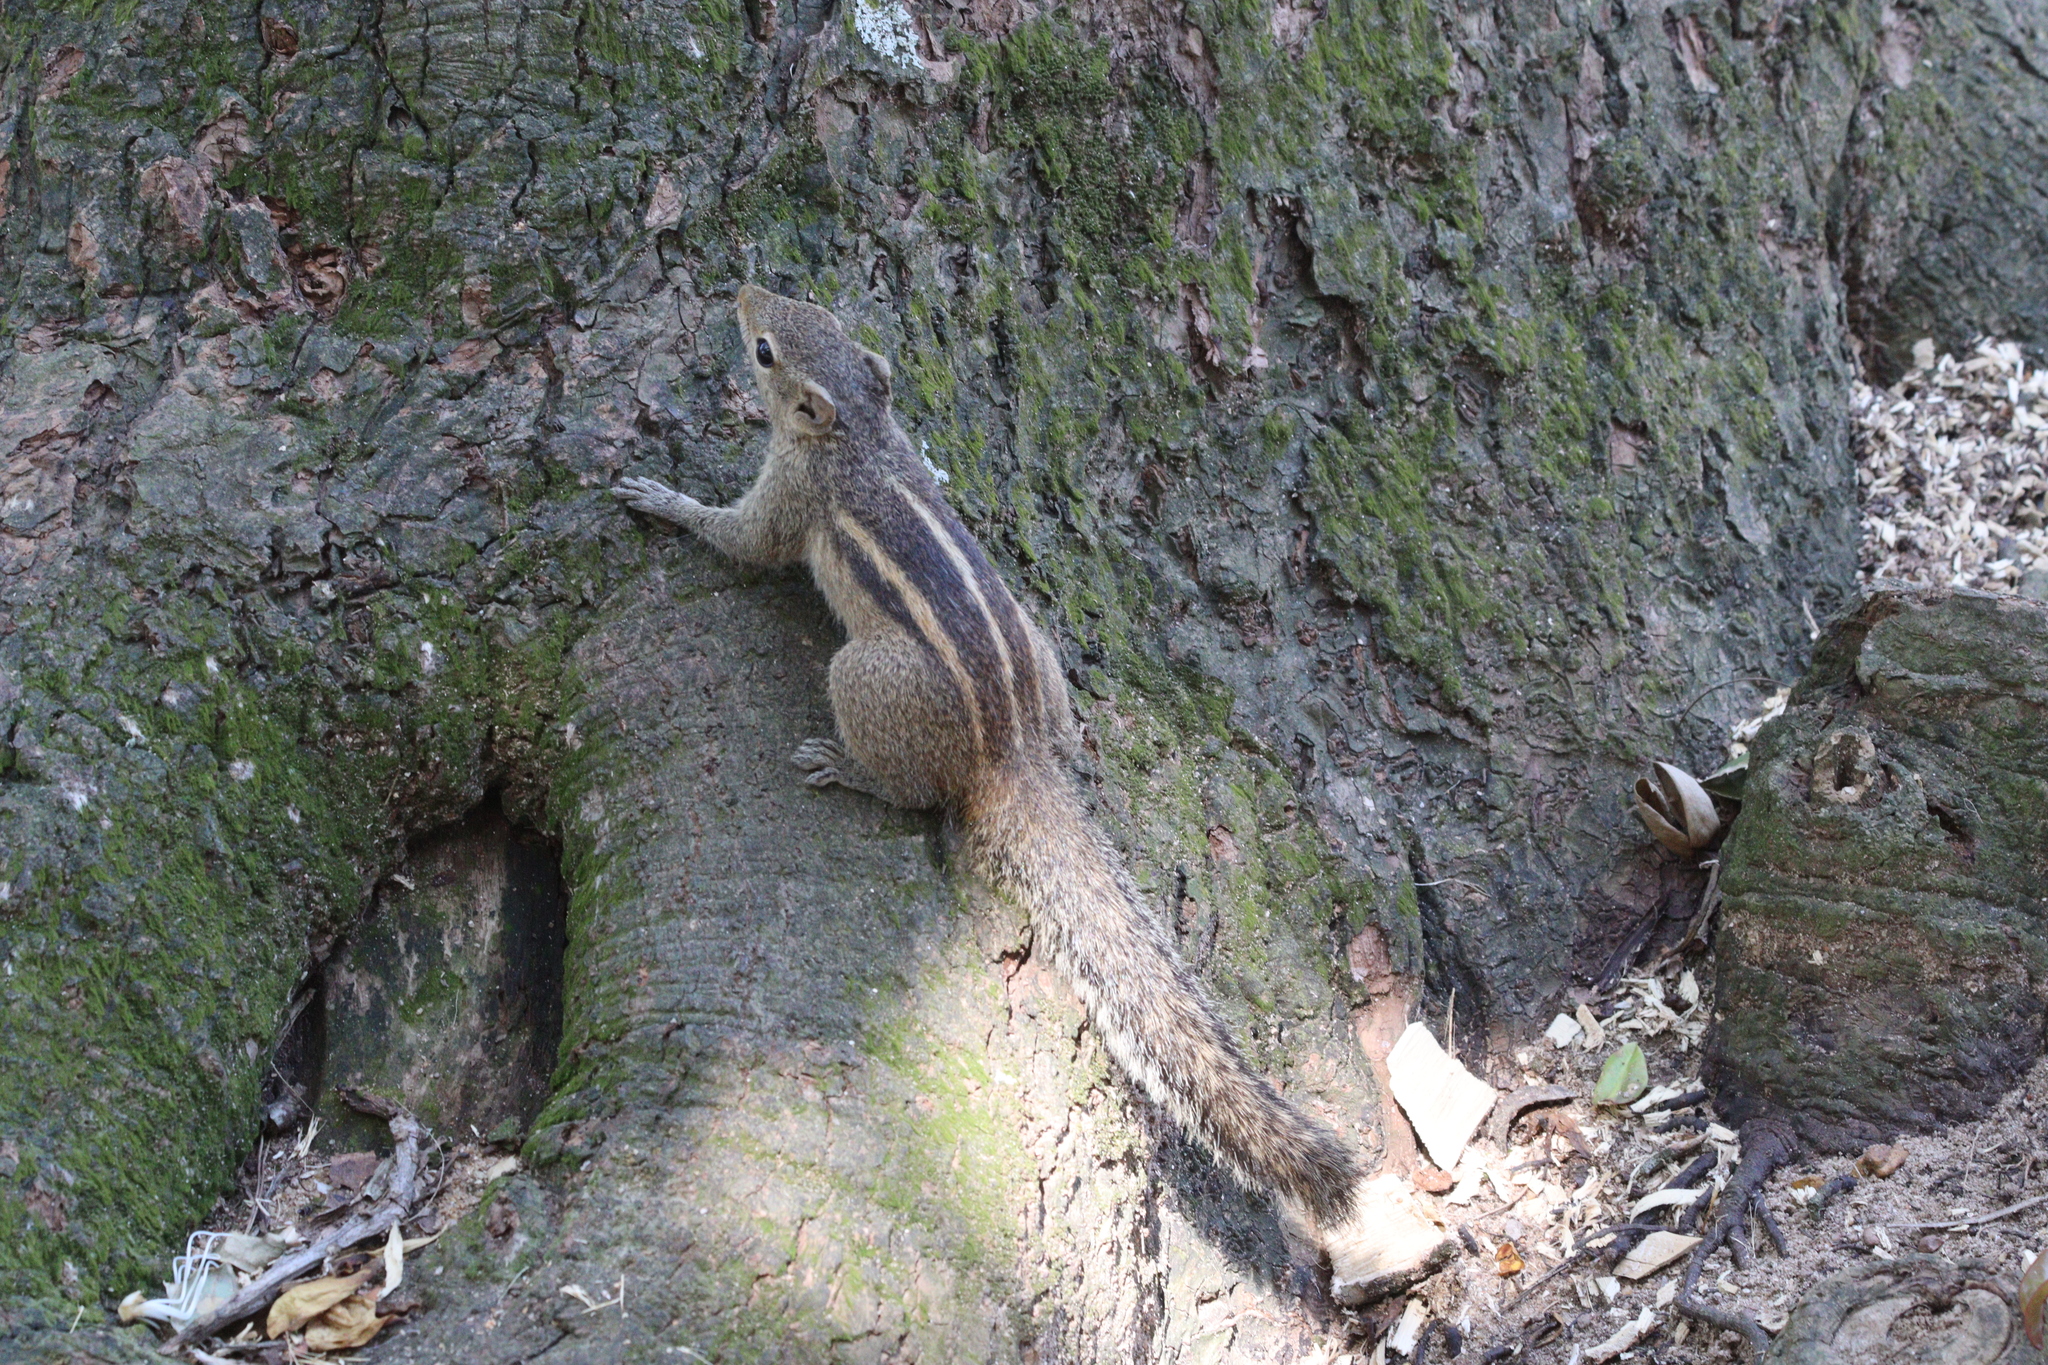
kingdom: Animalia
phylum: Chordata
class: Mammalia
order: Rodentia
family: Sciuridae
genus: Funambulus
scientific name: Funambulus palmarum
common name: Indian palm squirrel
